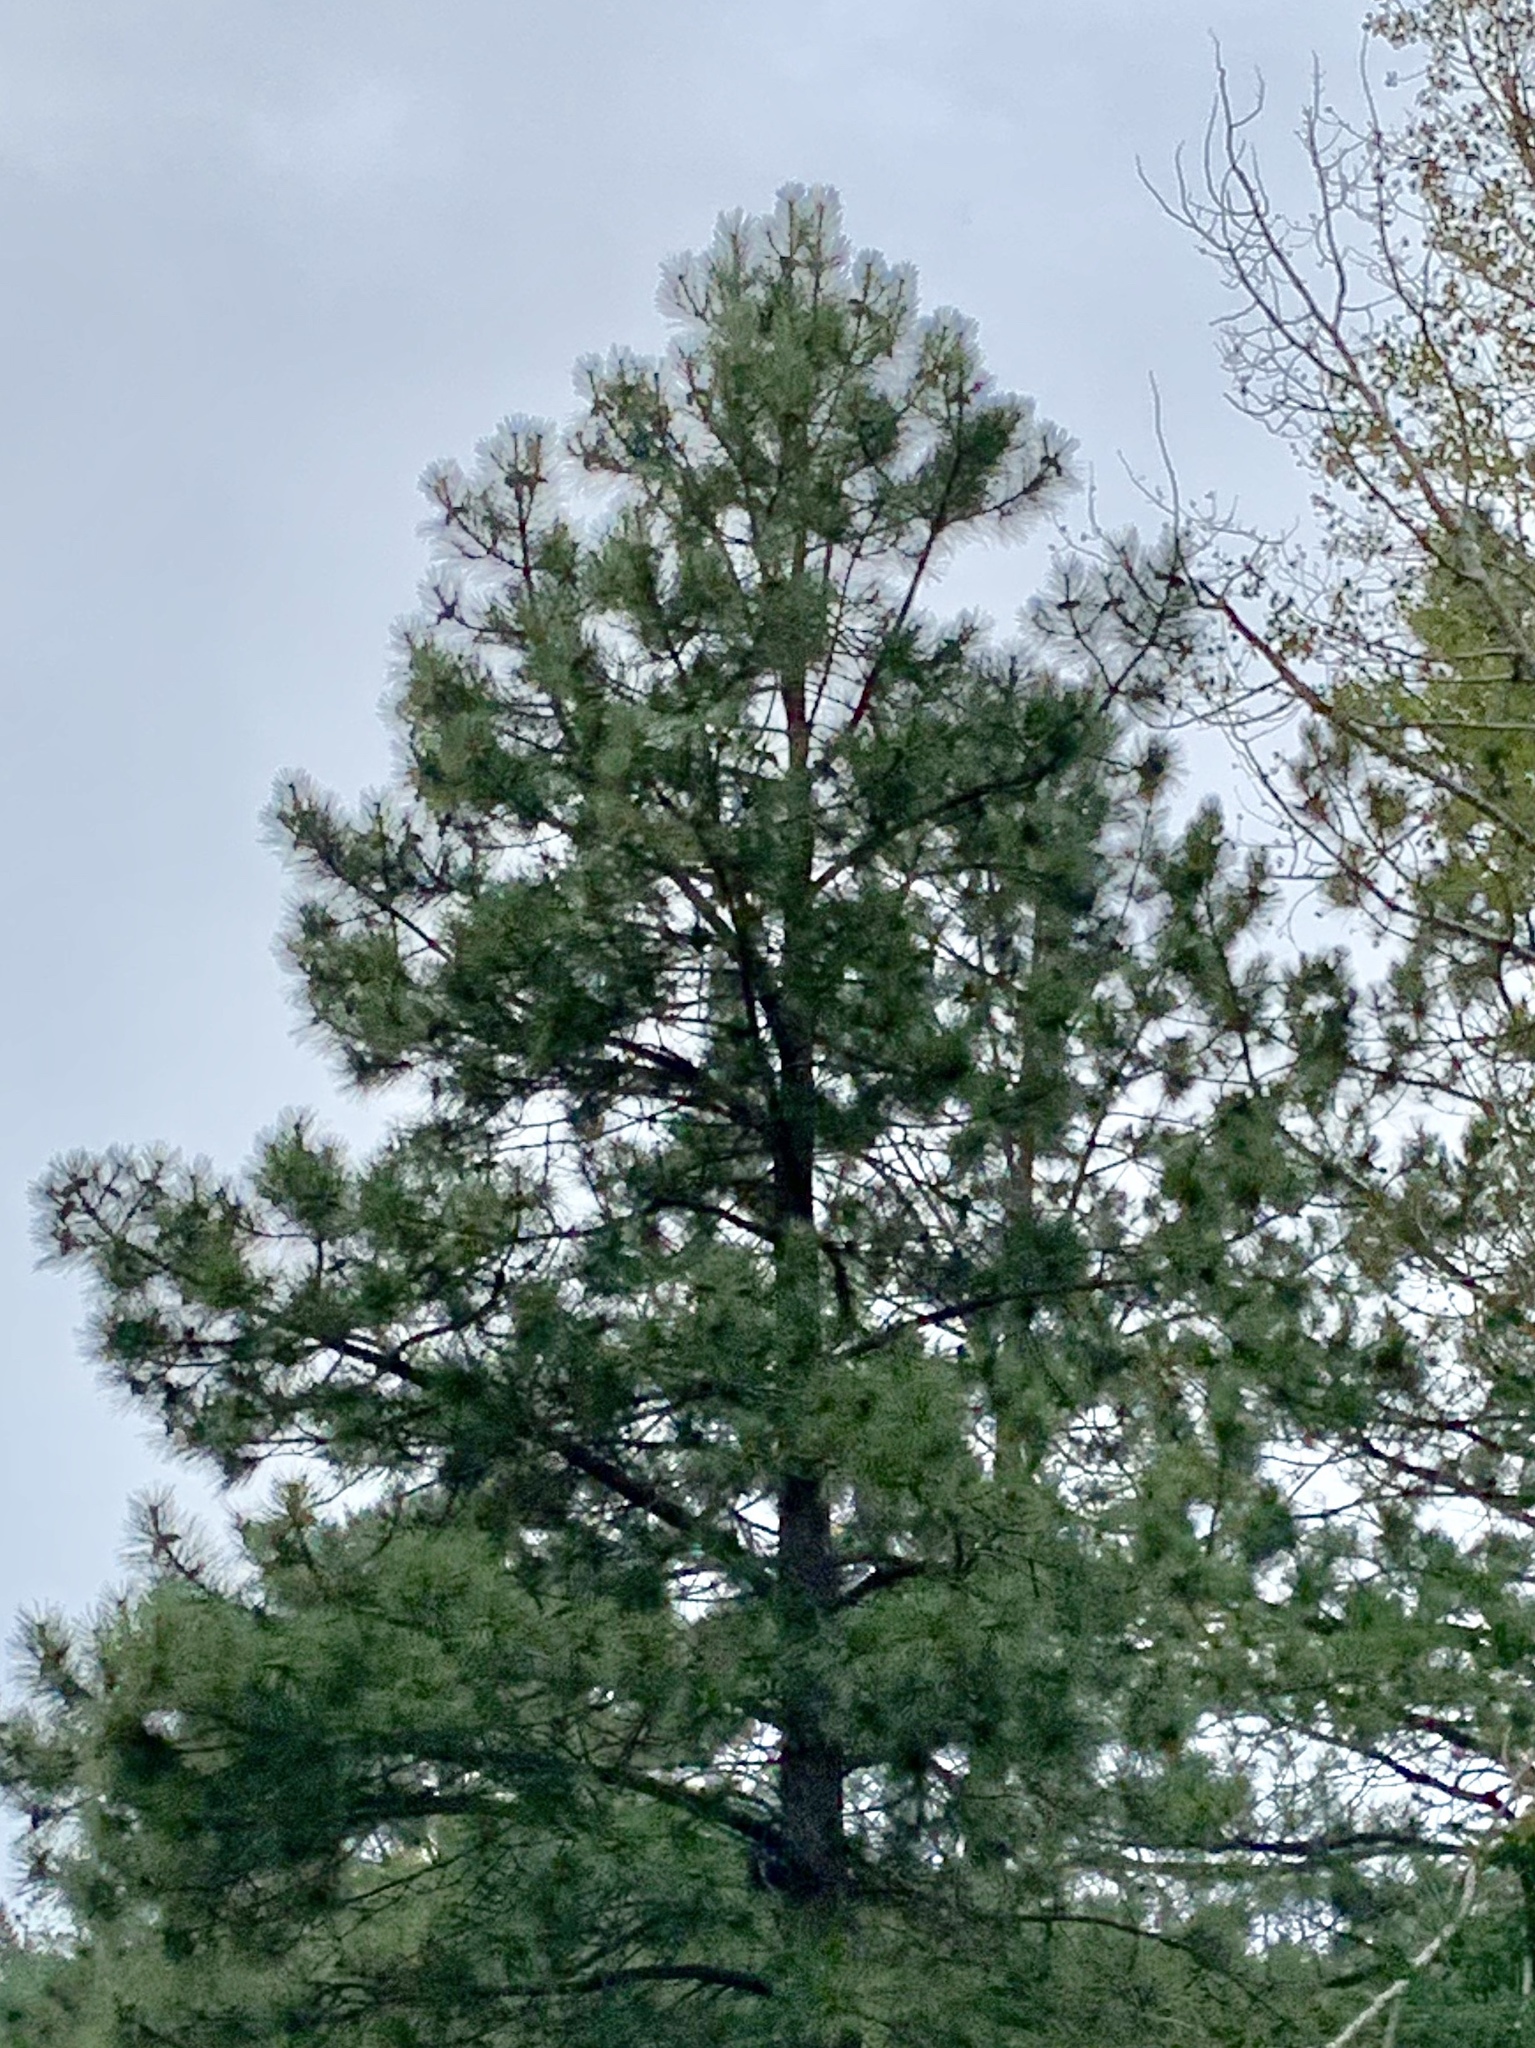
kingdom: Plantae
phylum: Tracheophyta
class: Pinopsida
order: Pinales
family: Pinaceae
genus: Pinus
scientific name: Pinus ponderosa
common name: Western yellow-pine
